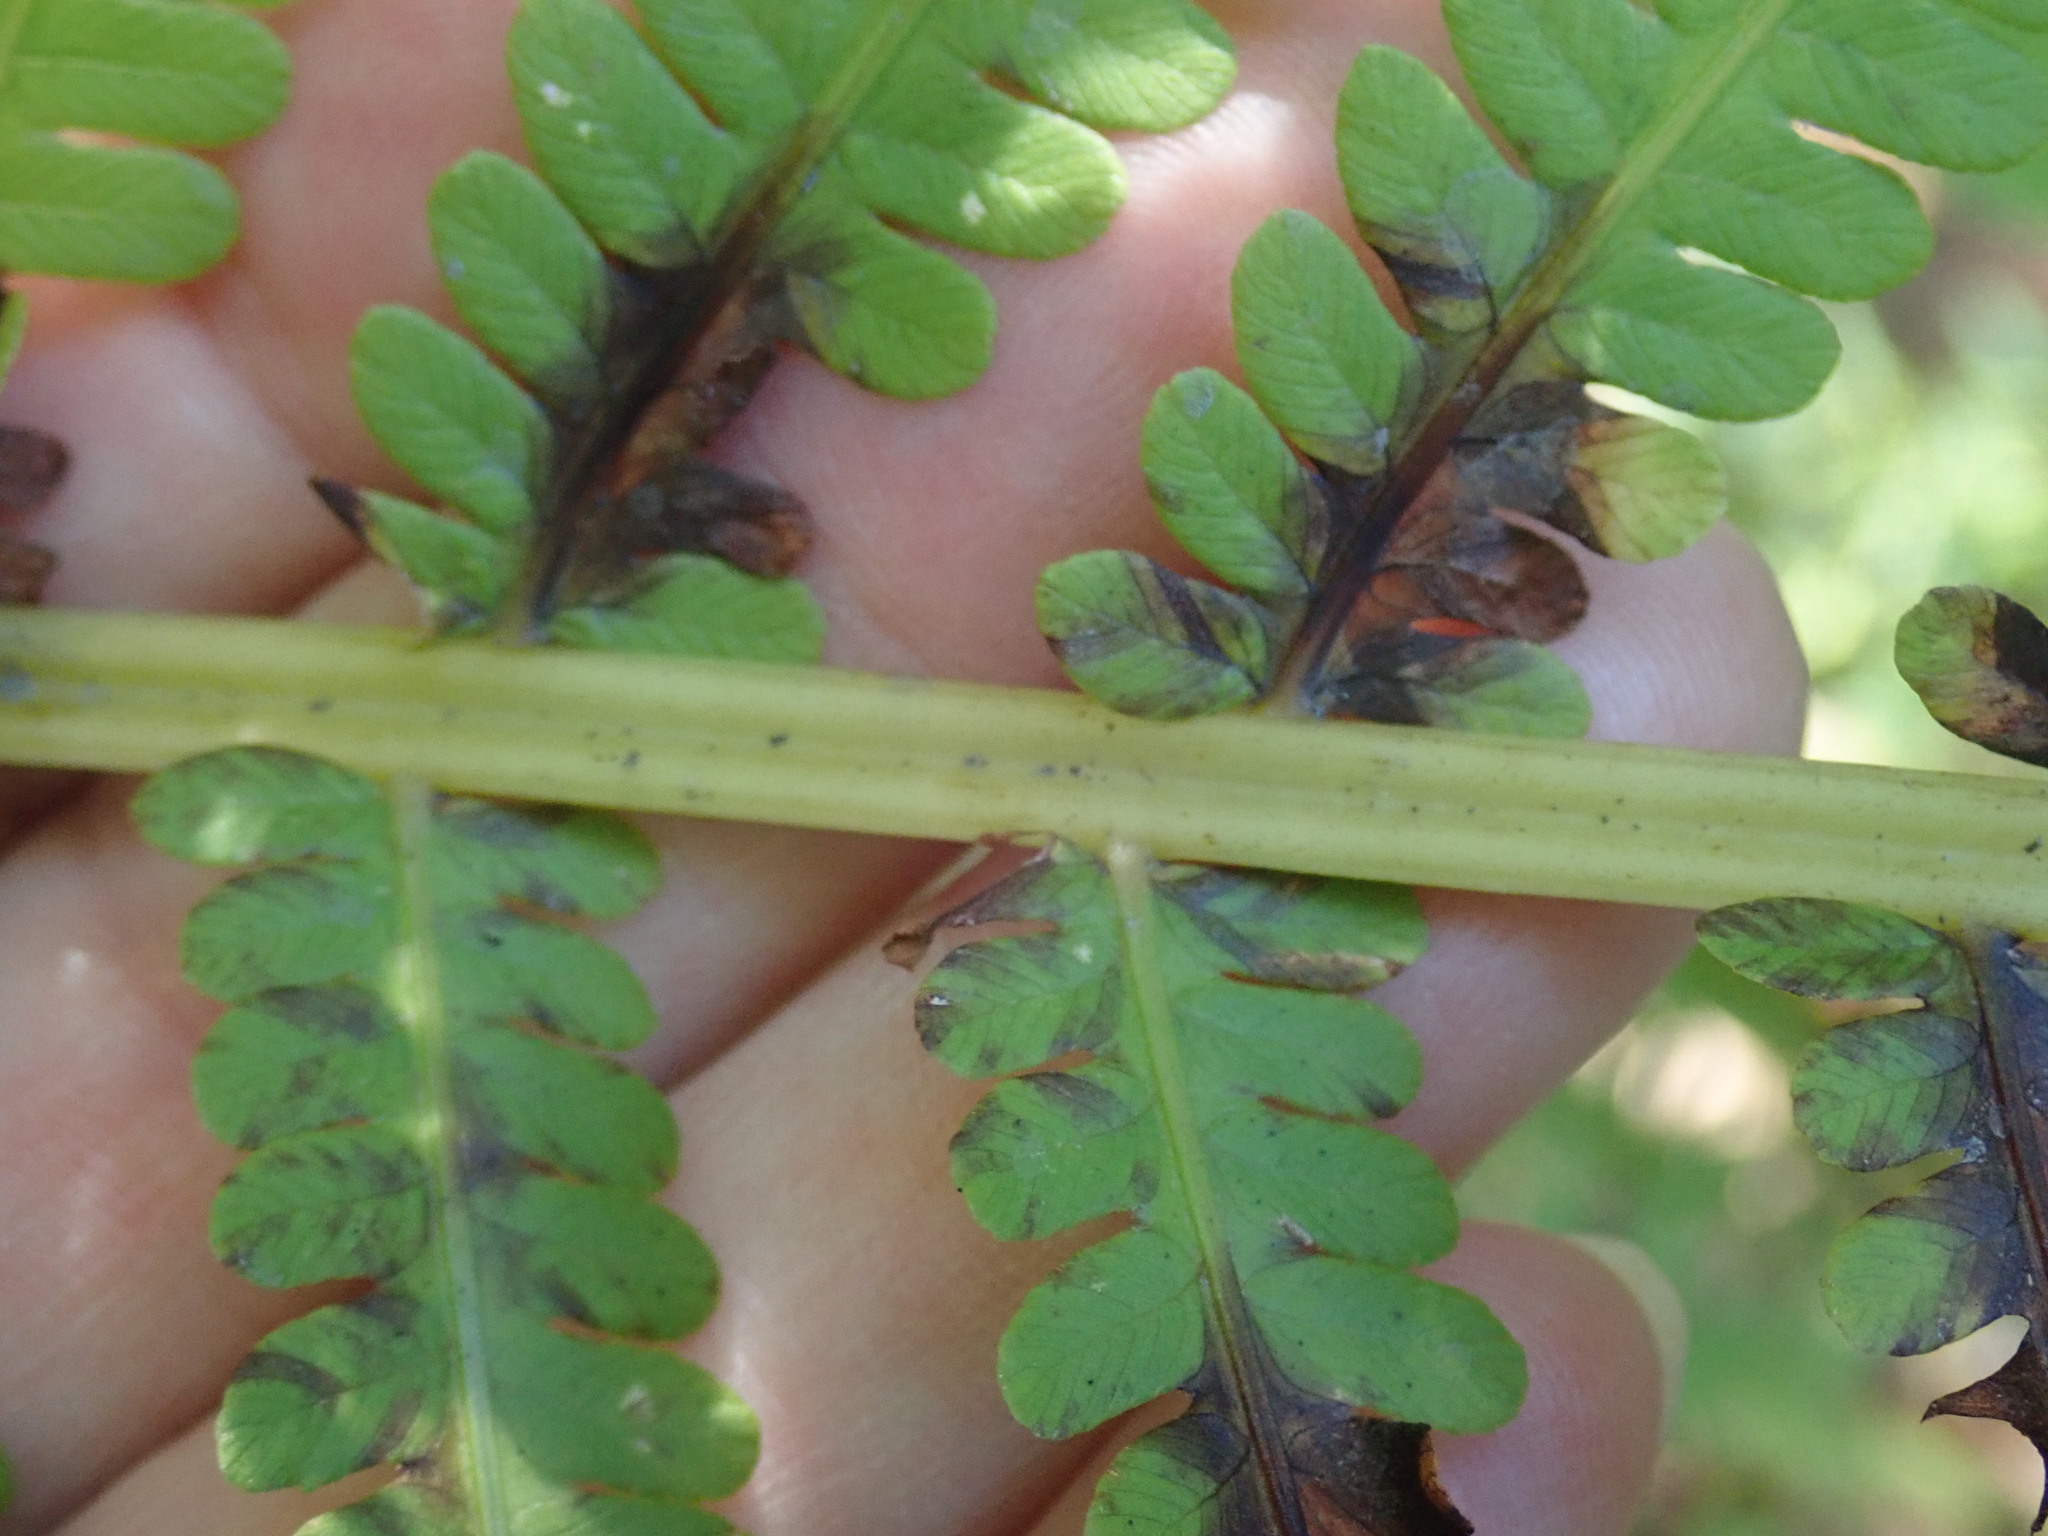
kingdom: Plantae
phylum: Tracheophyta
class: Polypodiopsida
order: Polypodiales
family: Onocleaceae
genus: Matteuccia
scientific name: Matteuccia struthiopteris
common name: Ostrich fern
